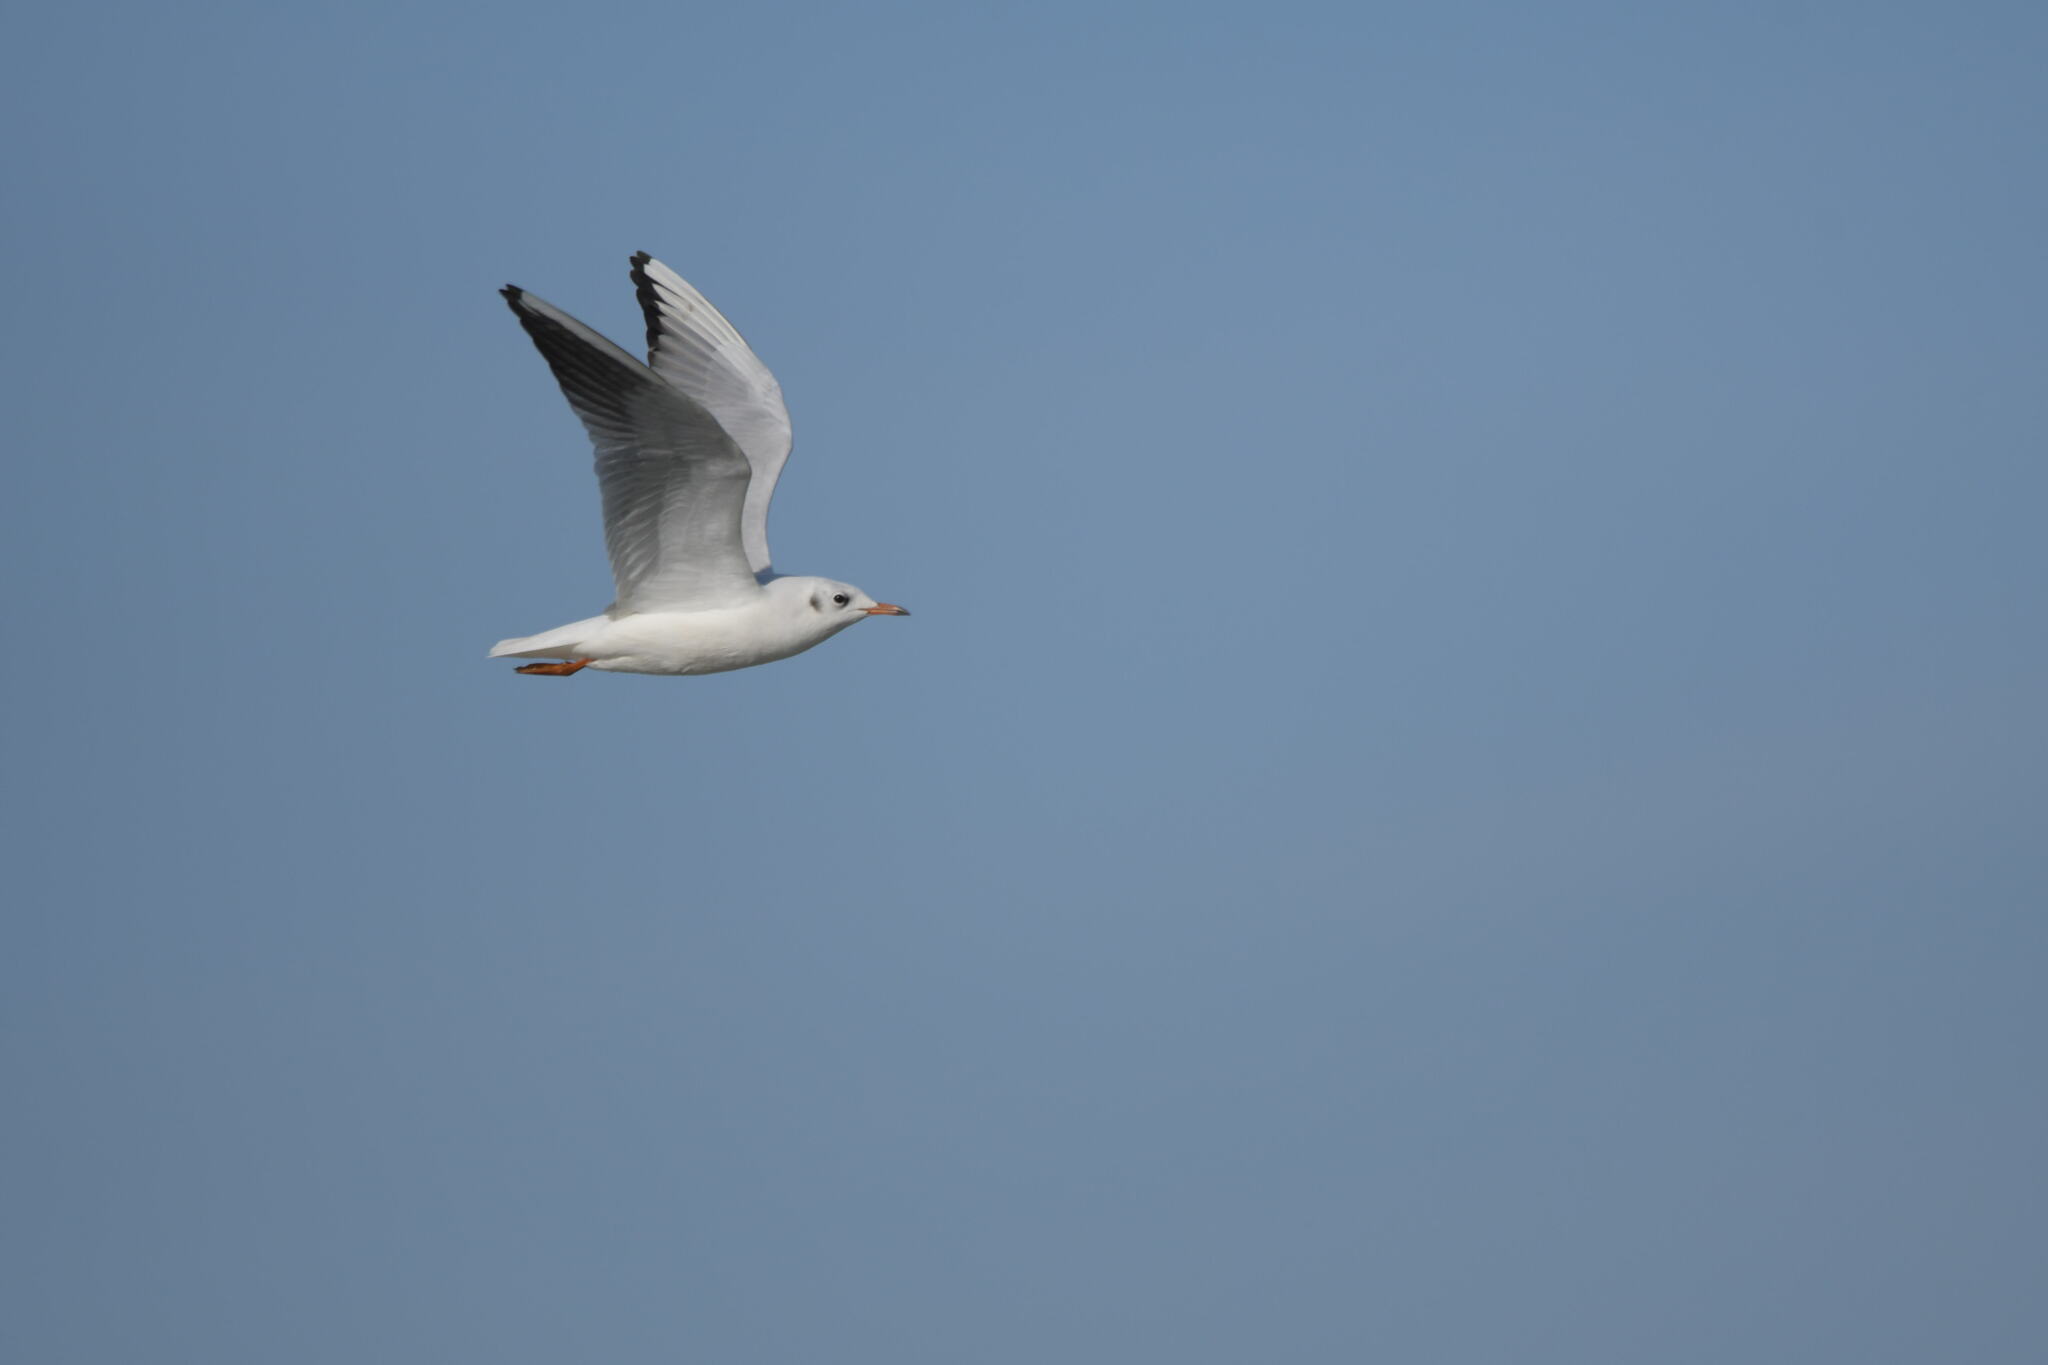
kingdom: Animalia
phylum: Chordata
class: Aves
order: Charadriiformes
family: Laridae
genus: Chroicocephalus
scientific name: Chroicocephalus ridibundus
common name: Black-headed gull
